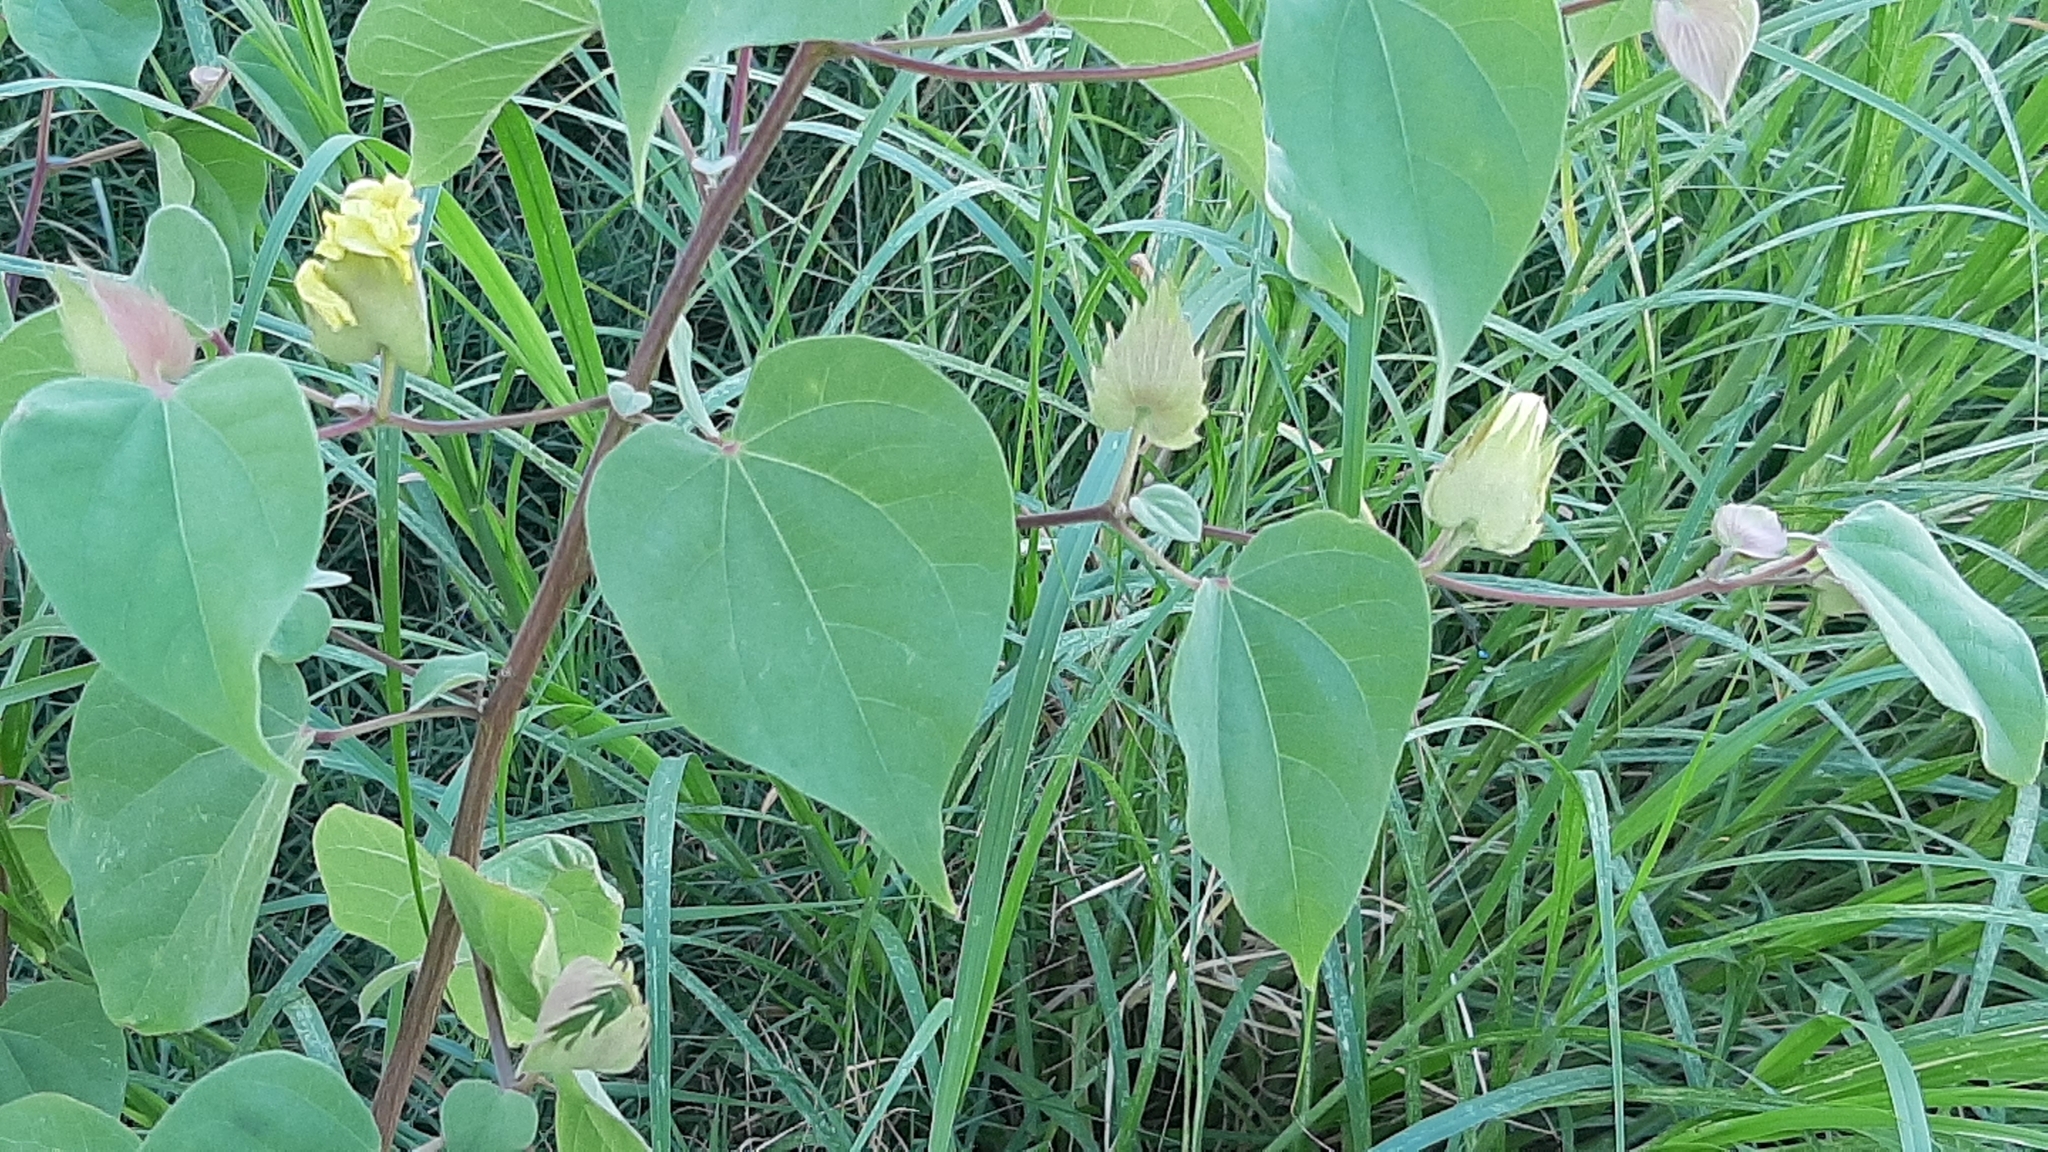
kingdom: Plantae
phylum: Tracheophyta
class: Magnoliopsida
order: Malvales
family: Malvaceae
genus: Gossypium
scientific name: Gossypium klotzschianum
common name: Galapagos cotton
